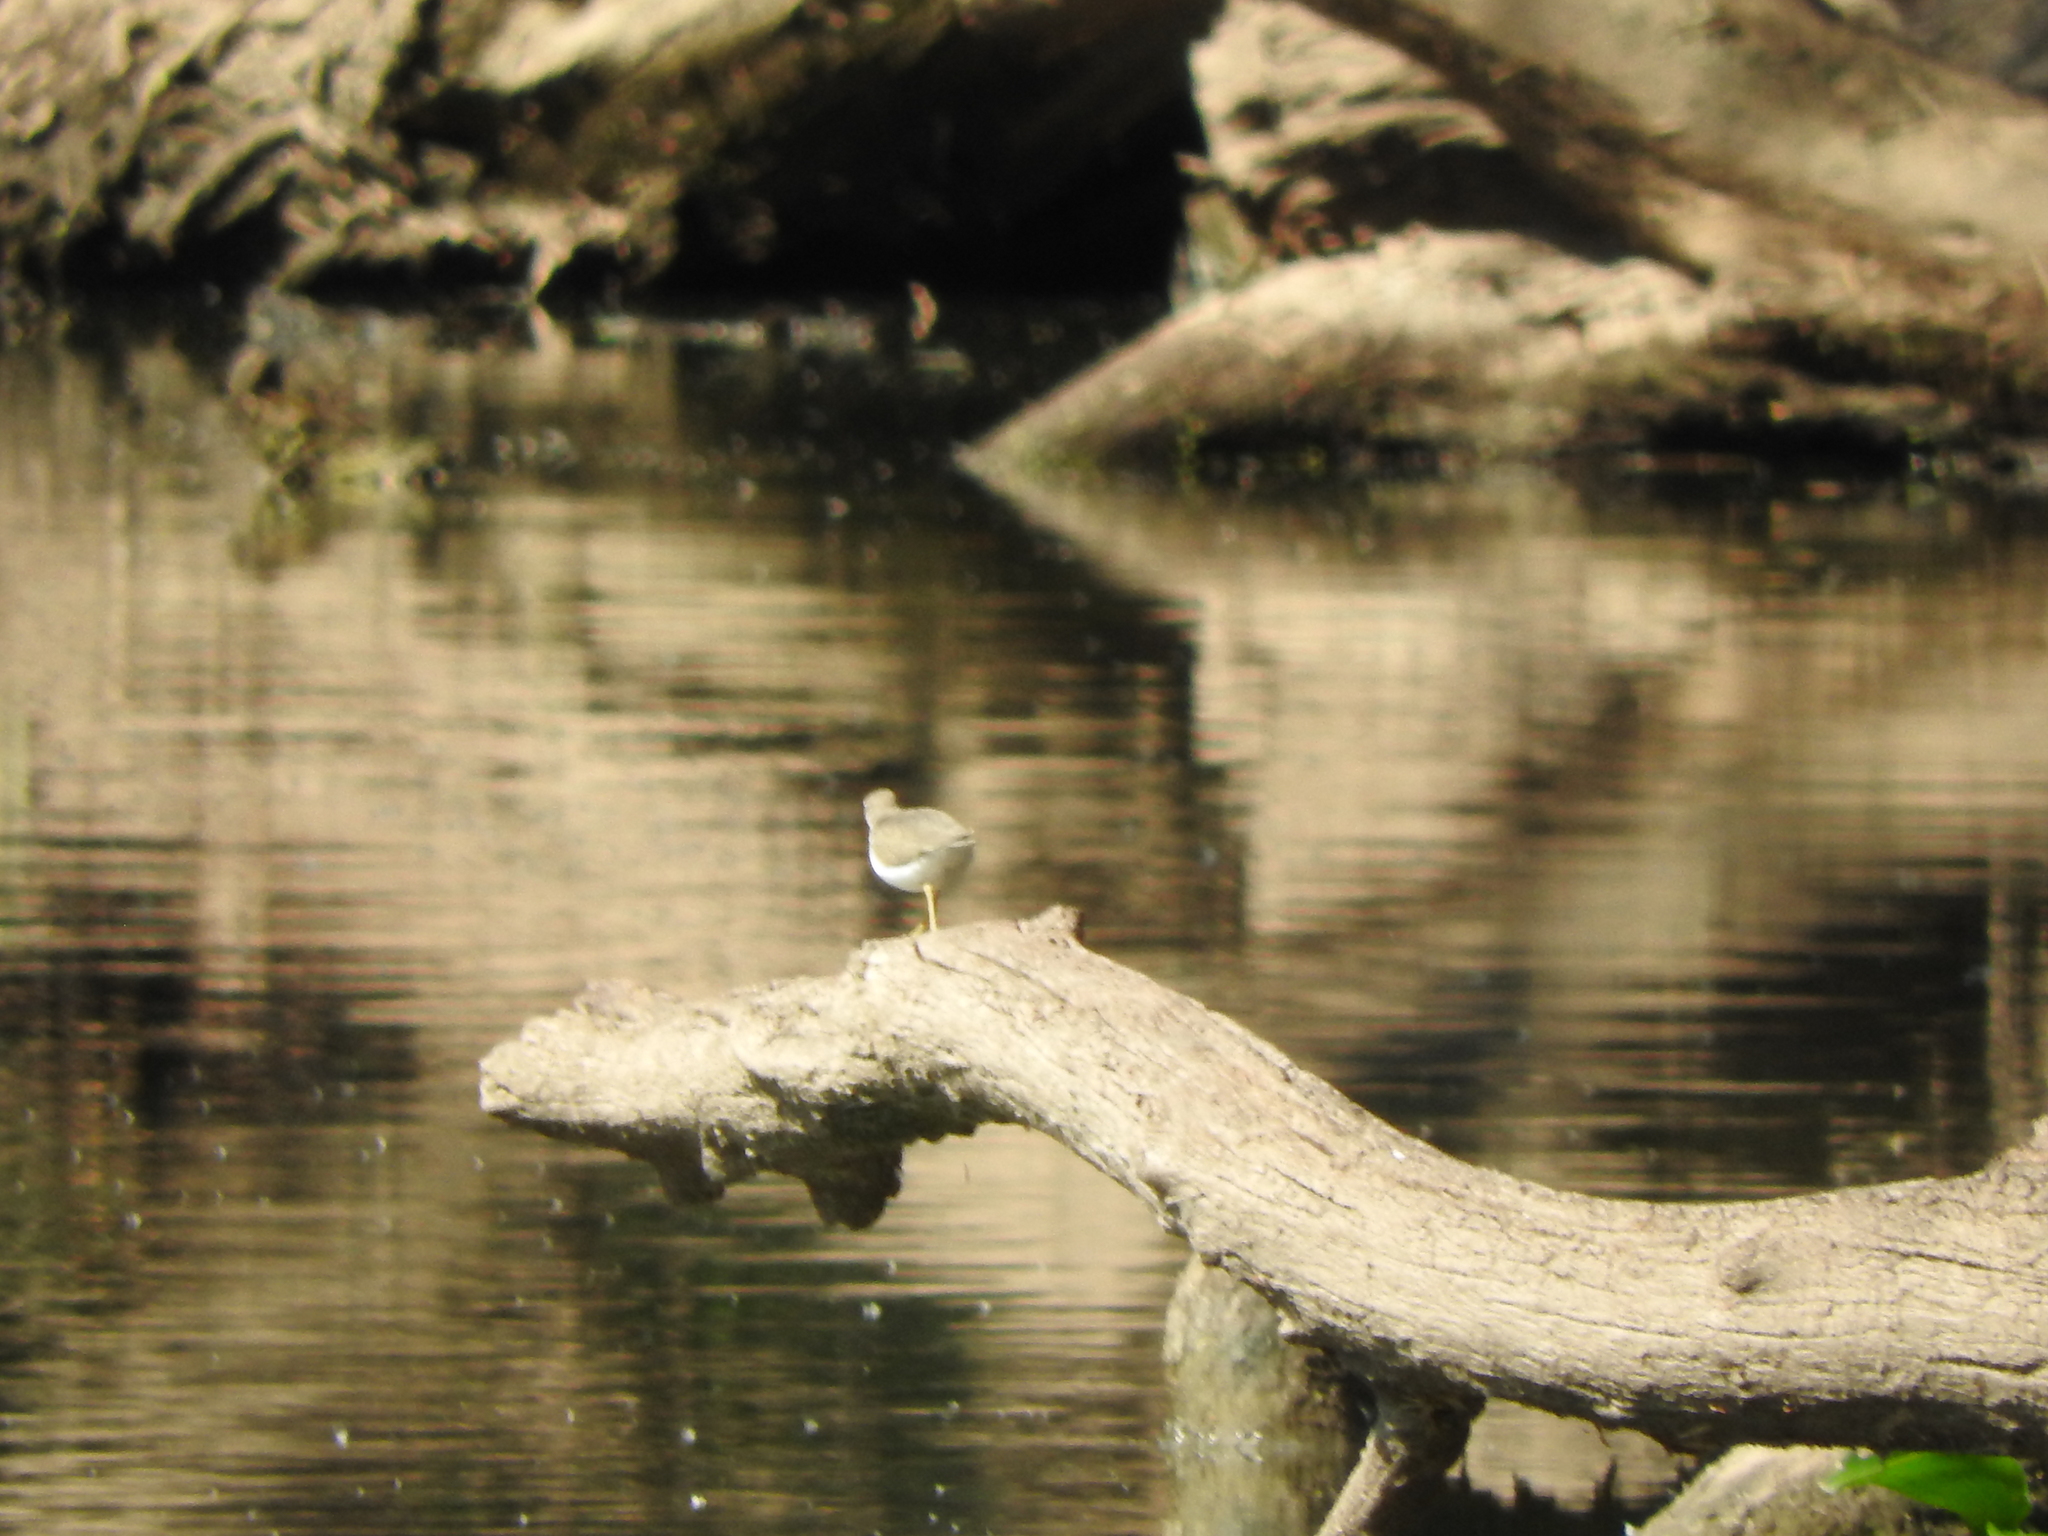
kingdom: Animalia
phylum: Chordata
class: Aves
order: Charadriiformes
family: Scolopacidae
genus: Actitis
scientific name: Actitis macularius
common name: Spotted sandpiper
